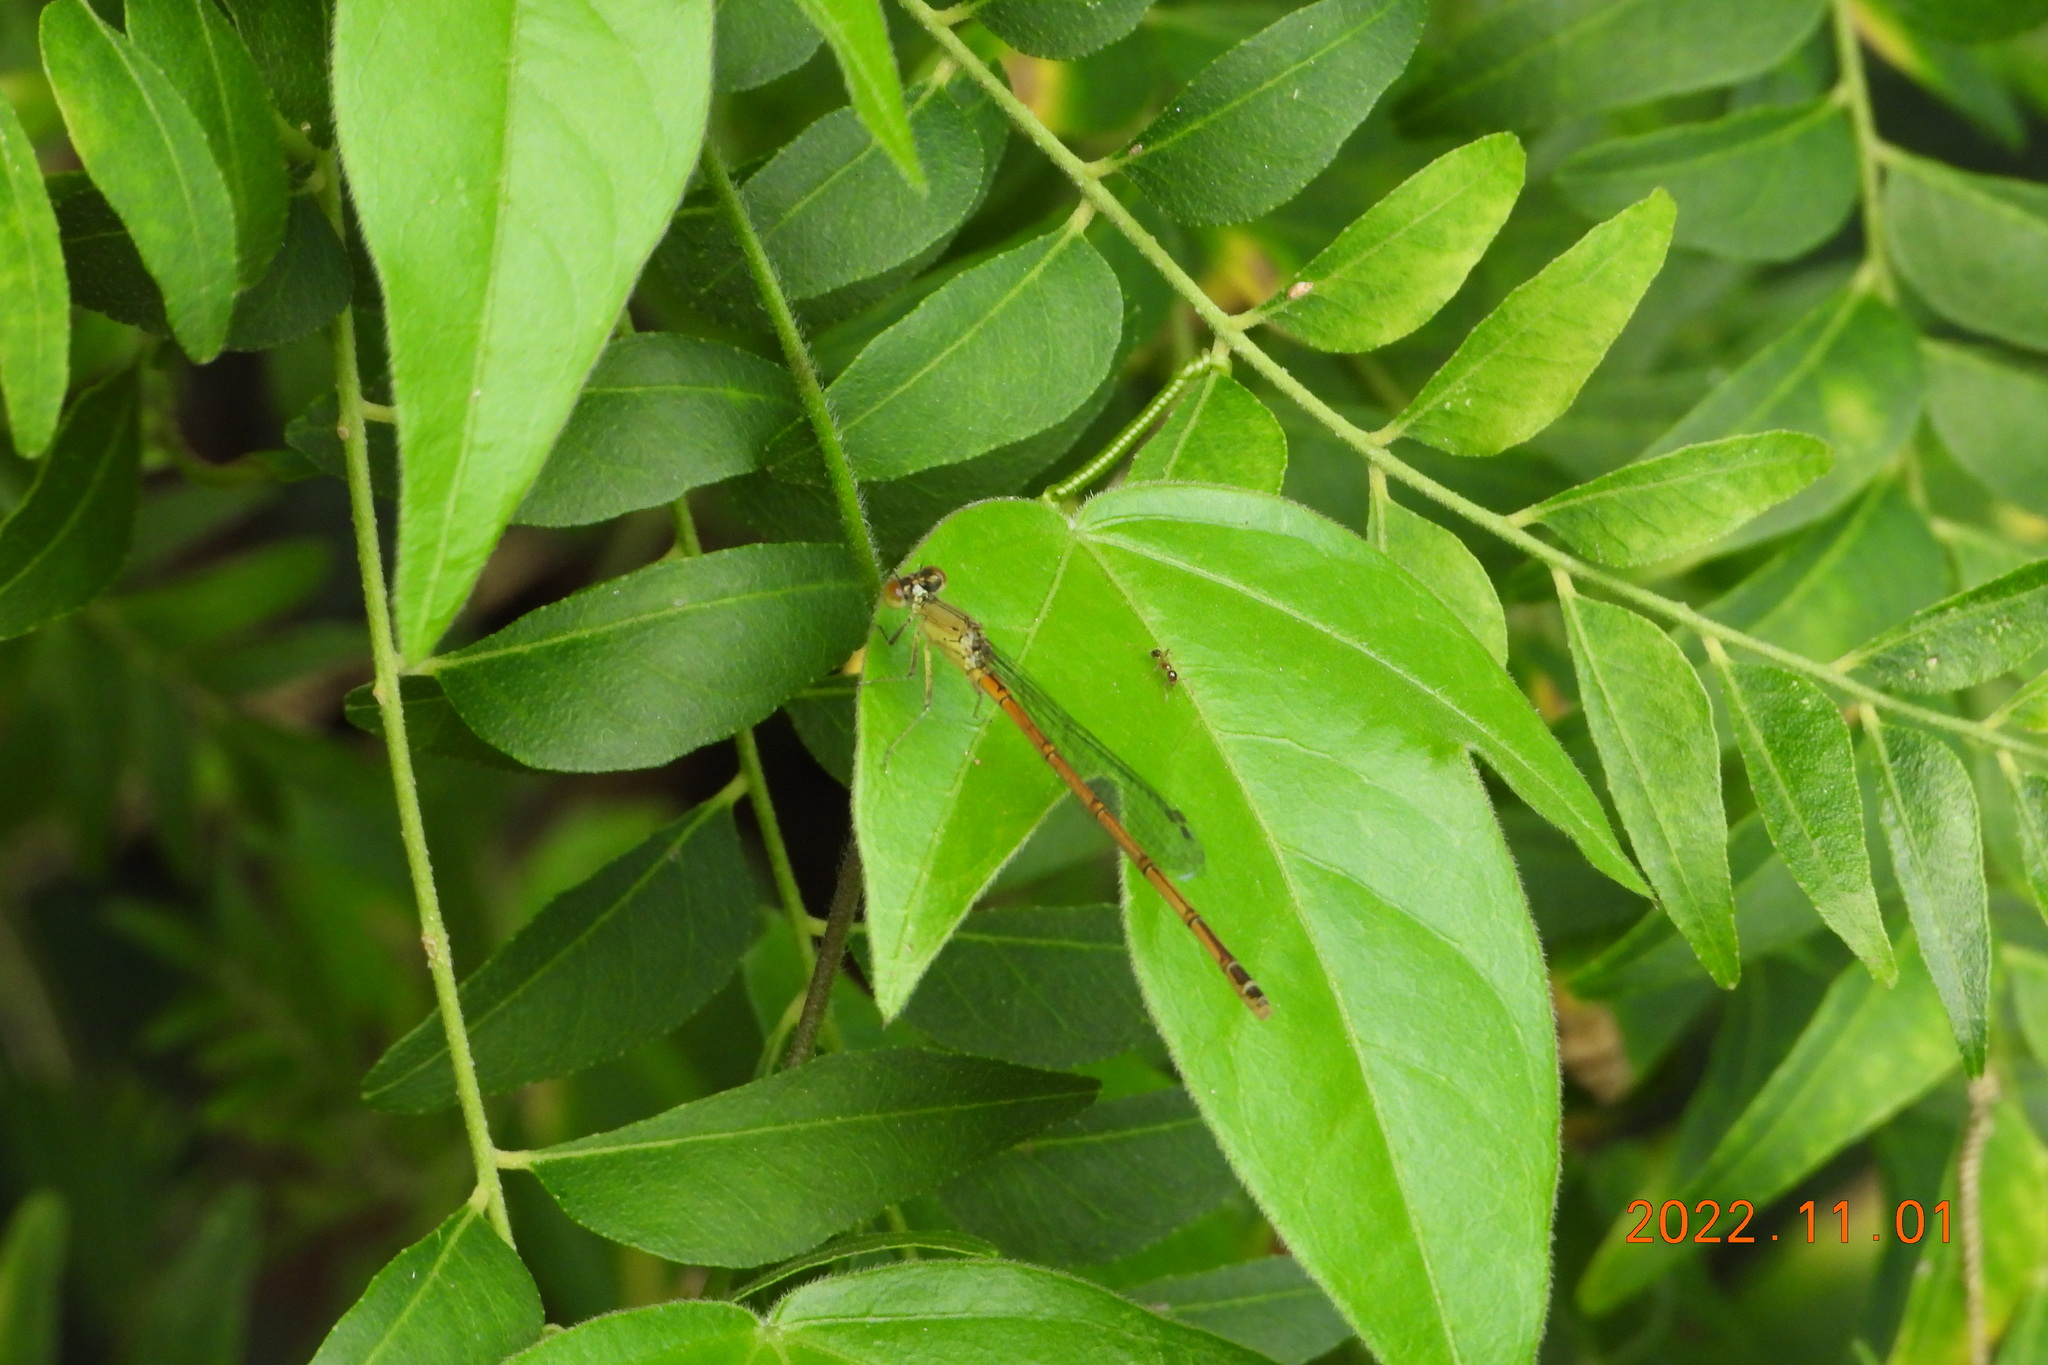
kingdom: Animalia
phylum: Arthropoda
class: Insecta
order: Odonata
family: Coenagrionidae
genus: Paracercion
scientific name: Paracercion melanotum
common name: Eastern lilysquatter
